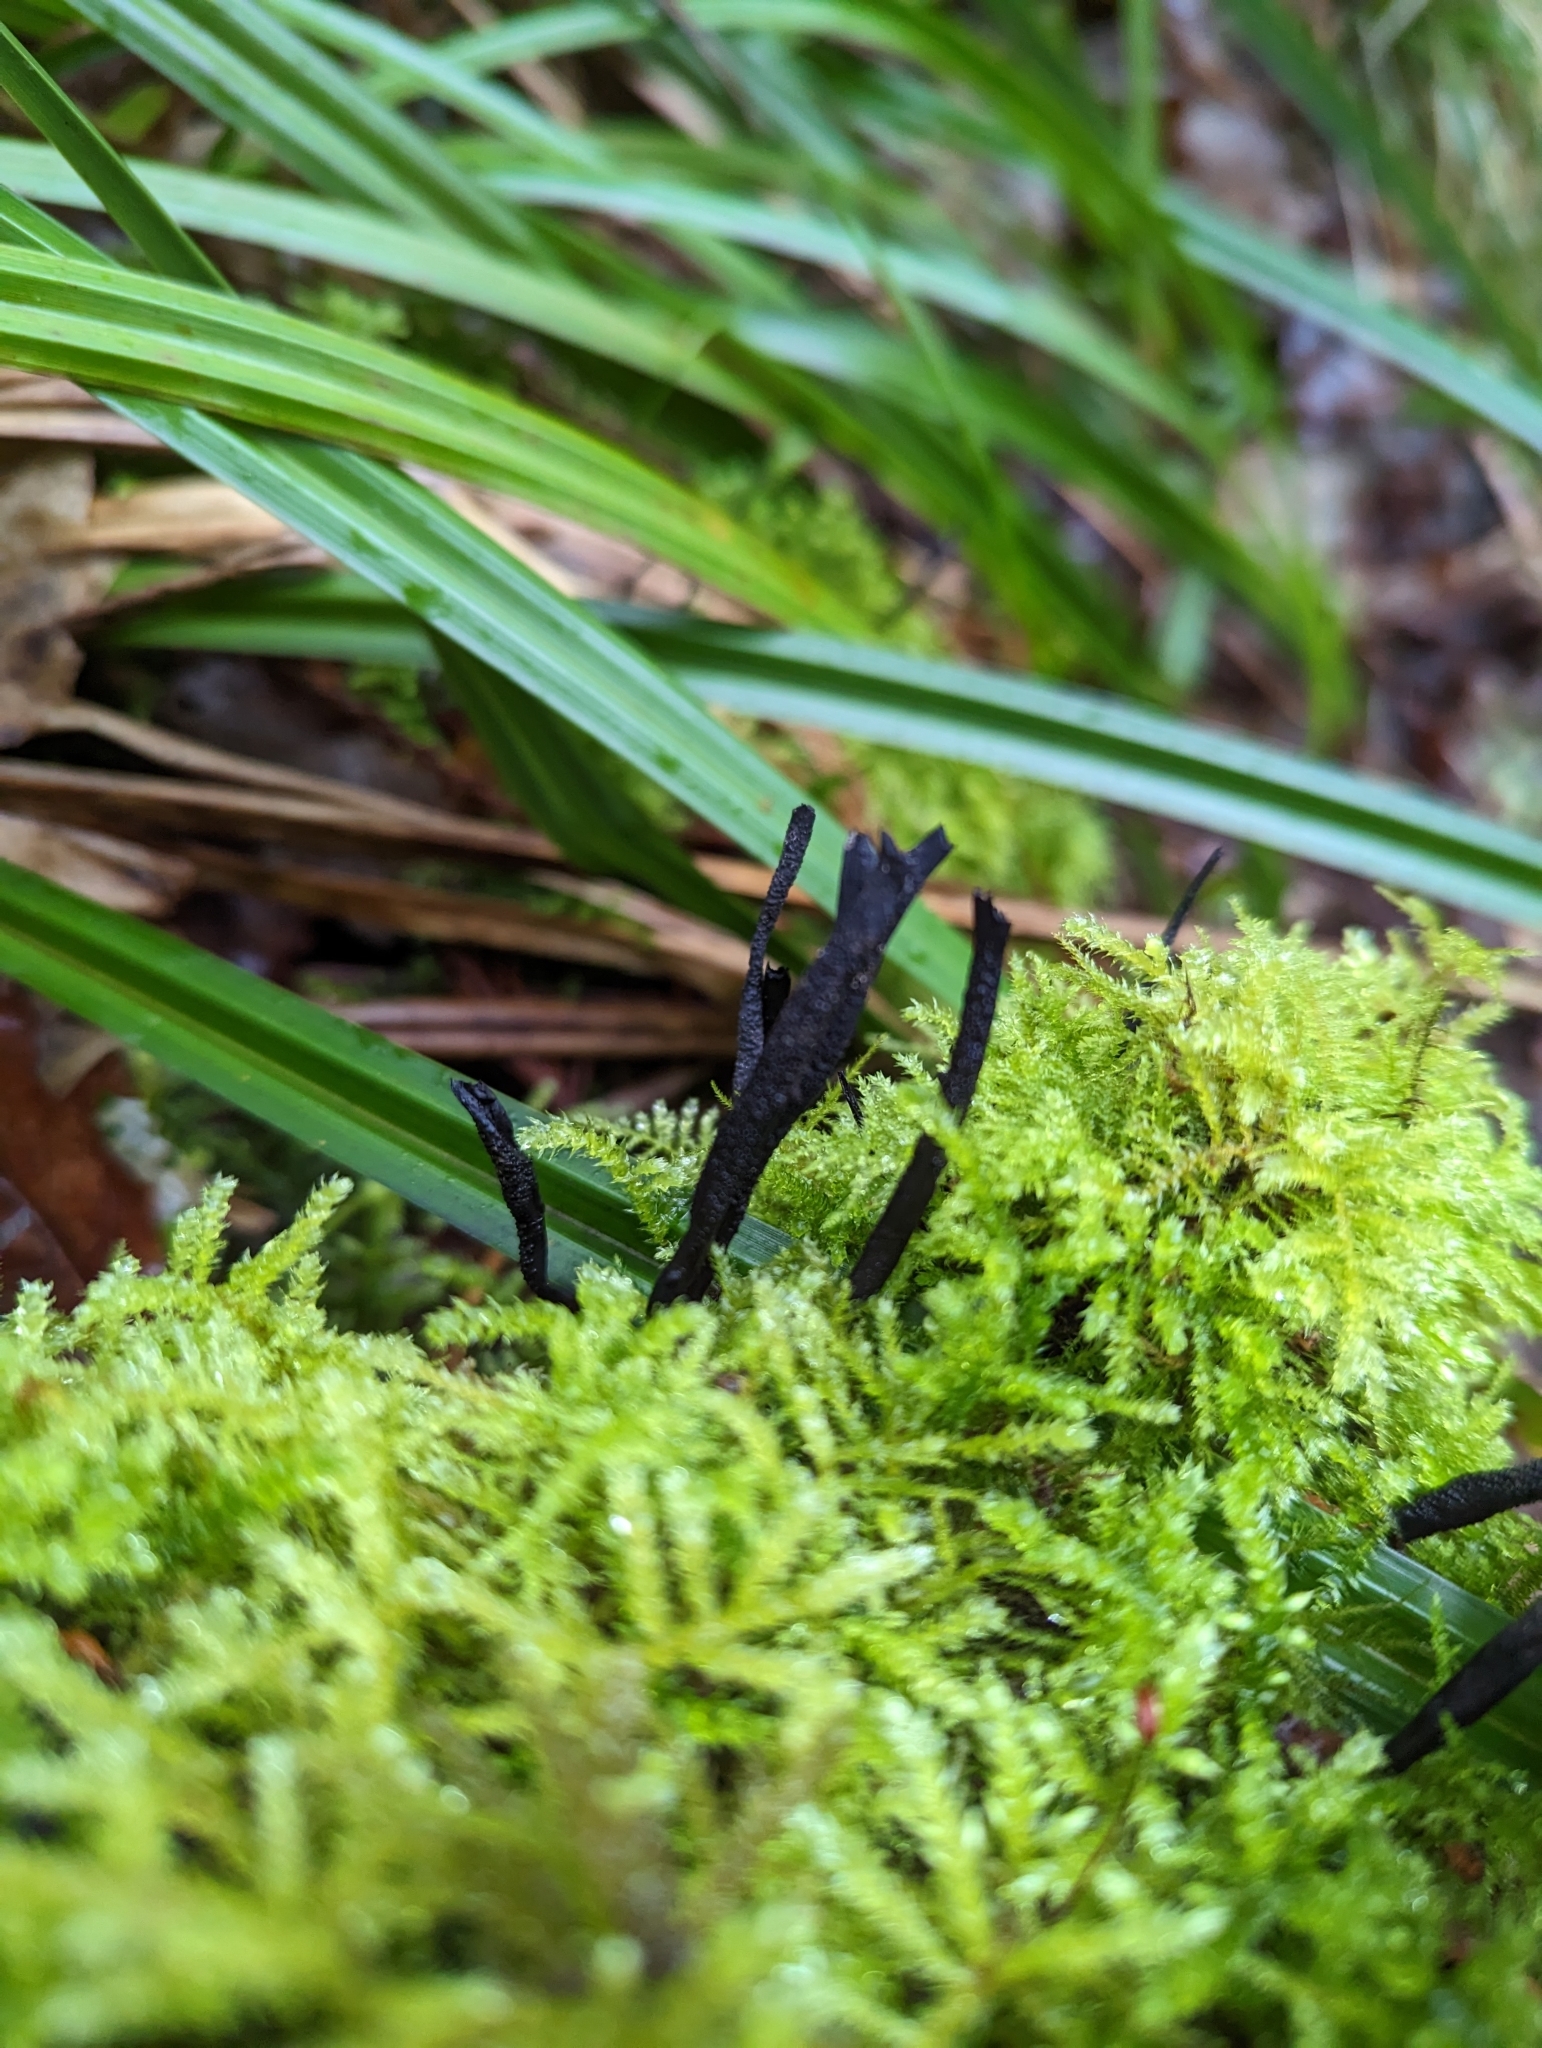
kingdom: Fungi
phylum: Ascomycota
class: Sordariomycetes
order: Xylariales
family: Xylariaceae
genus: Xylaria
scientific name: Xylaria hypoxylon
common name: Candle-snuff fungus
